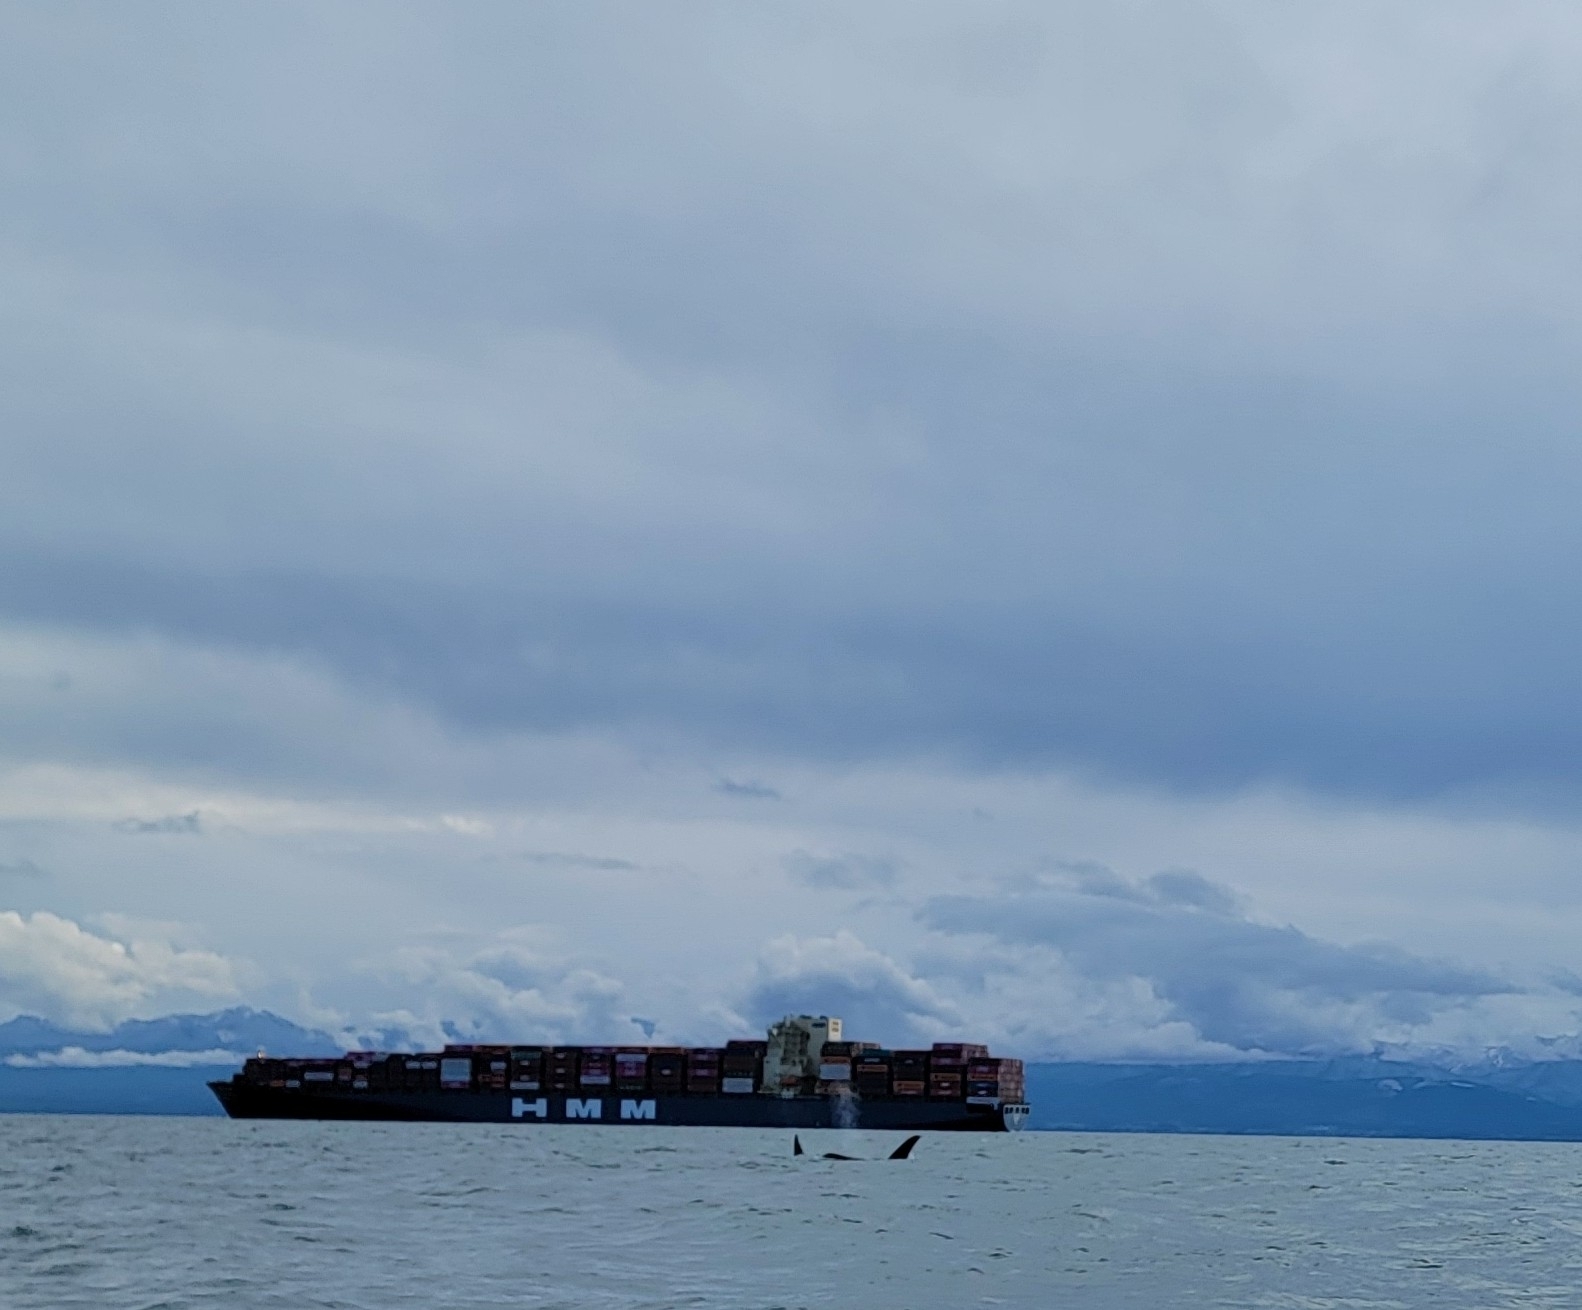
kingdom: Animalia
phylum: Chordata
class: Mammalia
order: Cetacea
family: Delphinidae
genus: Orcinus
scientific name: Orcinus orca
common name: Killer whale
